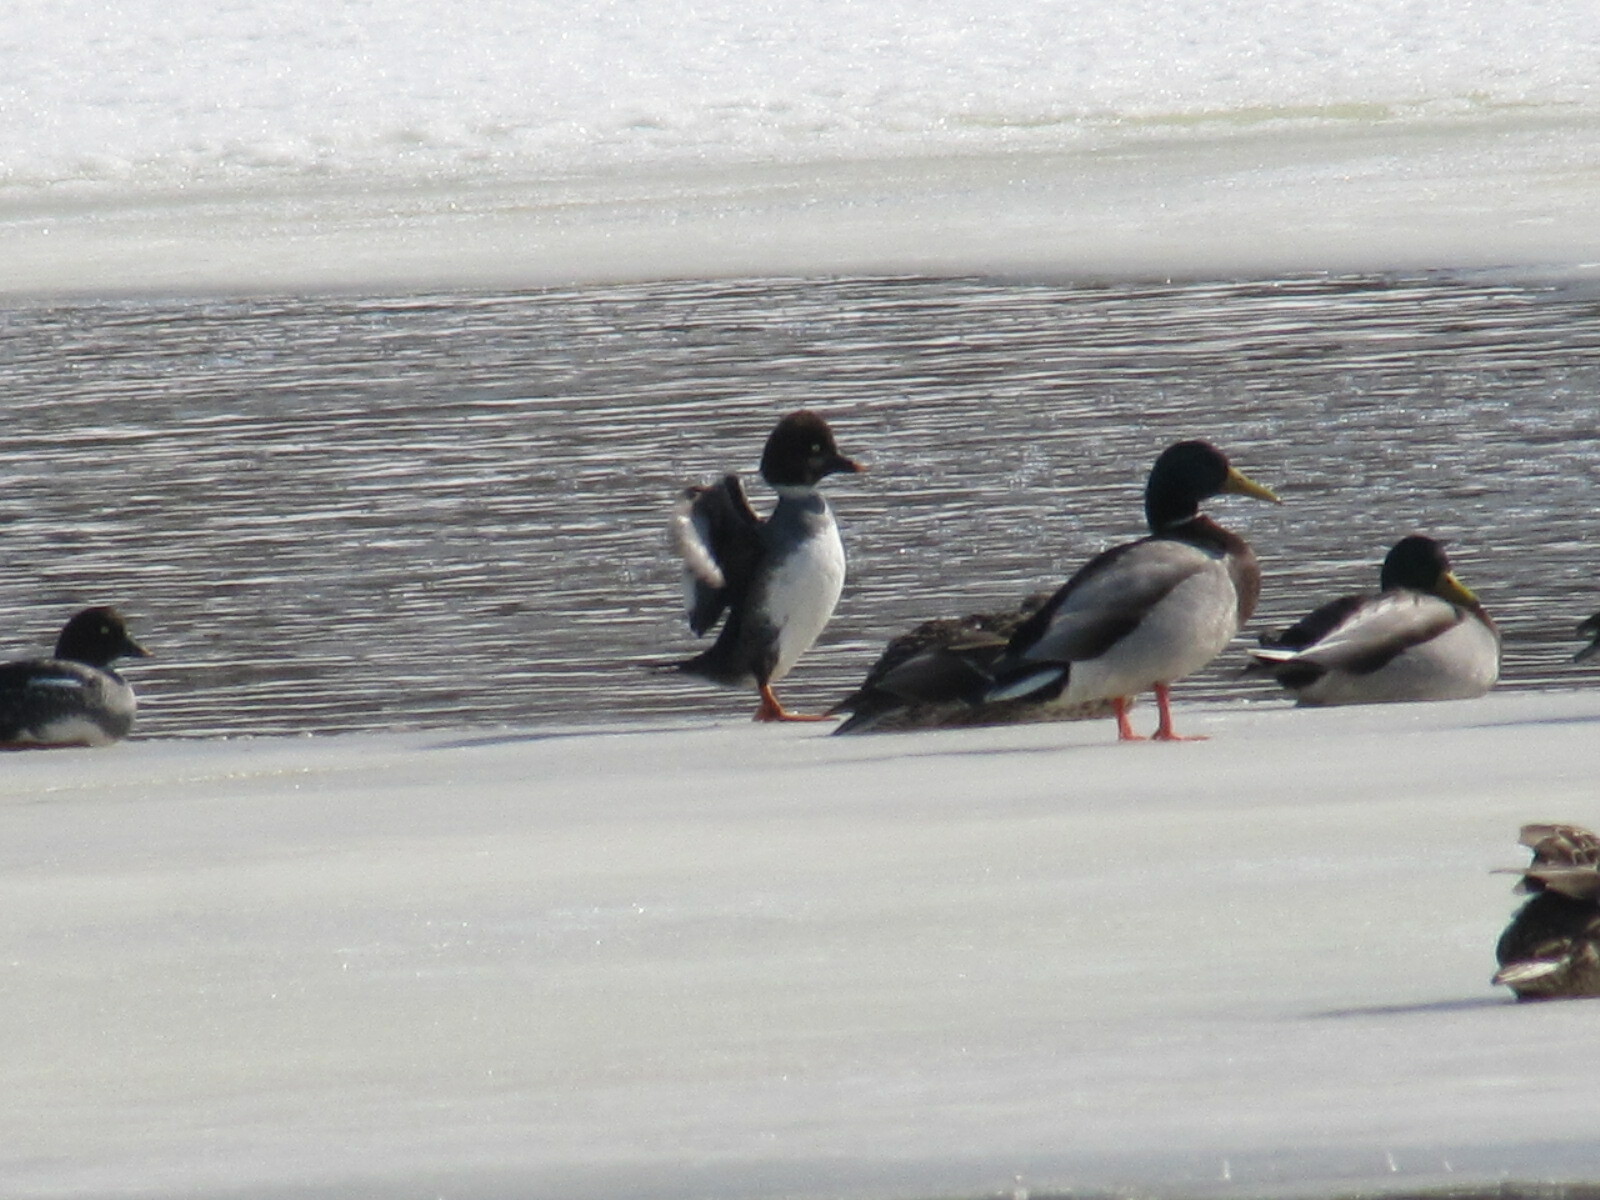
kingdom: Animalia
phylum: Chordata
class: Aves
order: Anseriformes
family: Anatidae
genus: Bucephala
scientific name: Bucephala clangula
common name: Common goldeneye
